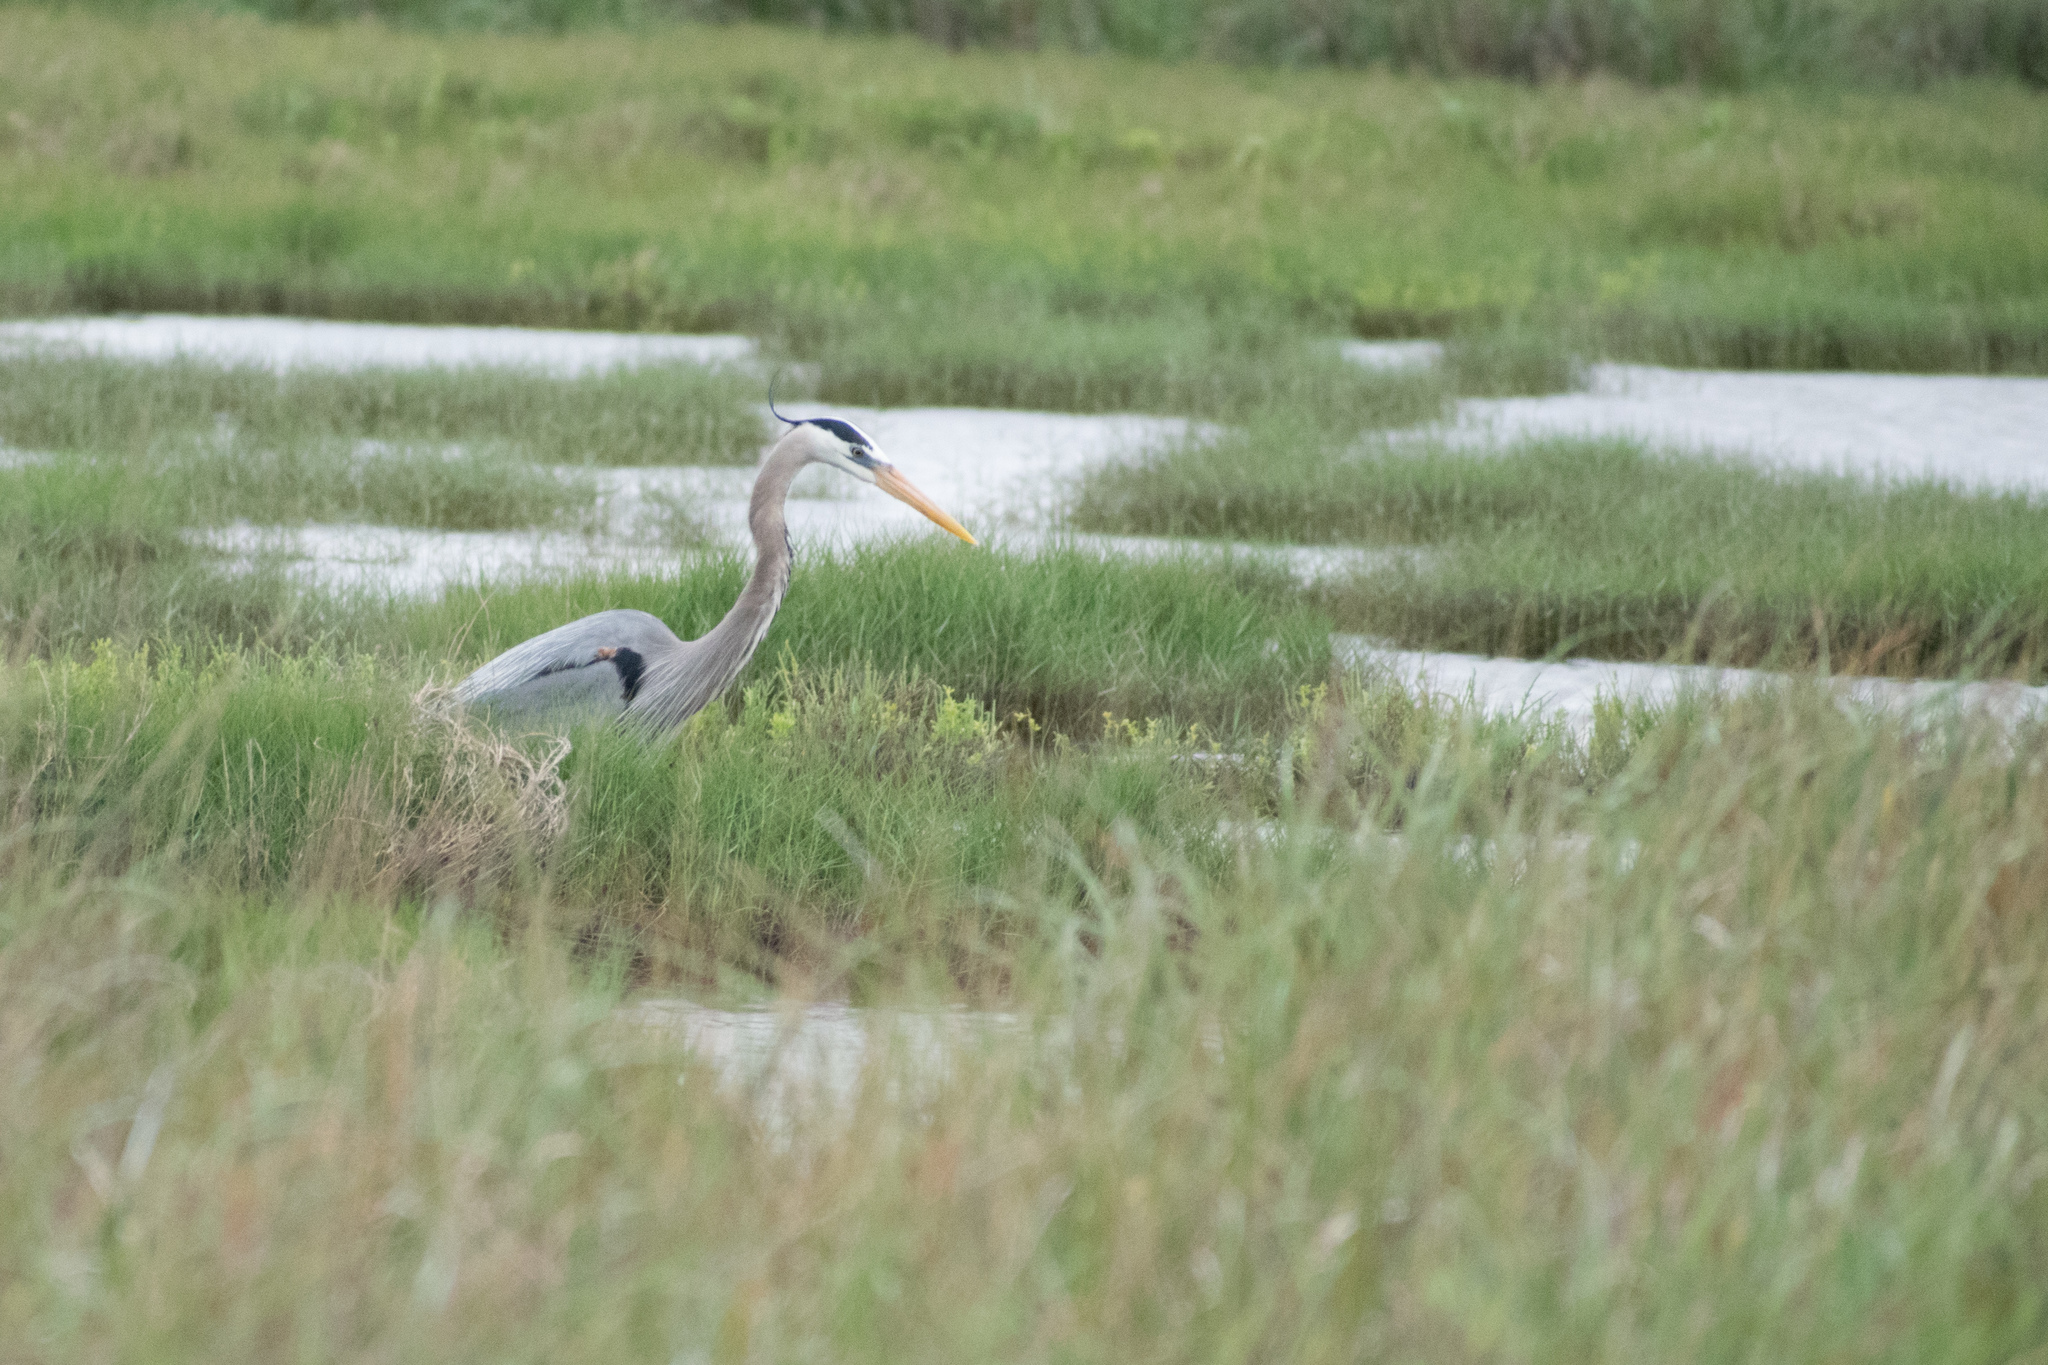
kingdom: Animalia
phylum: Chordata
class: Aves
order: Pelecaniformes
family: Ardeidae
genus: Ardea
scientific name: Ardea herodias
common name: Great blue heron
